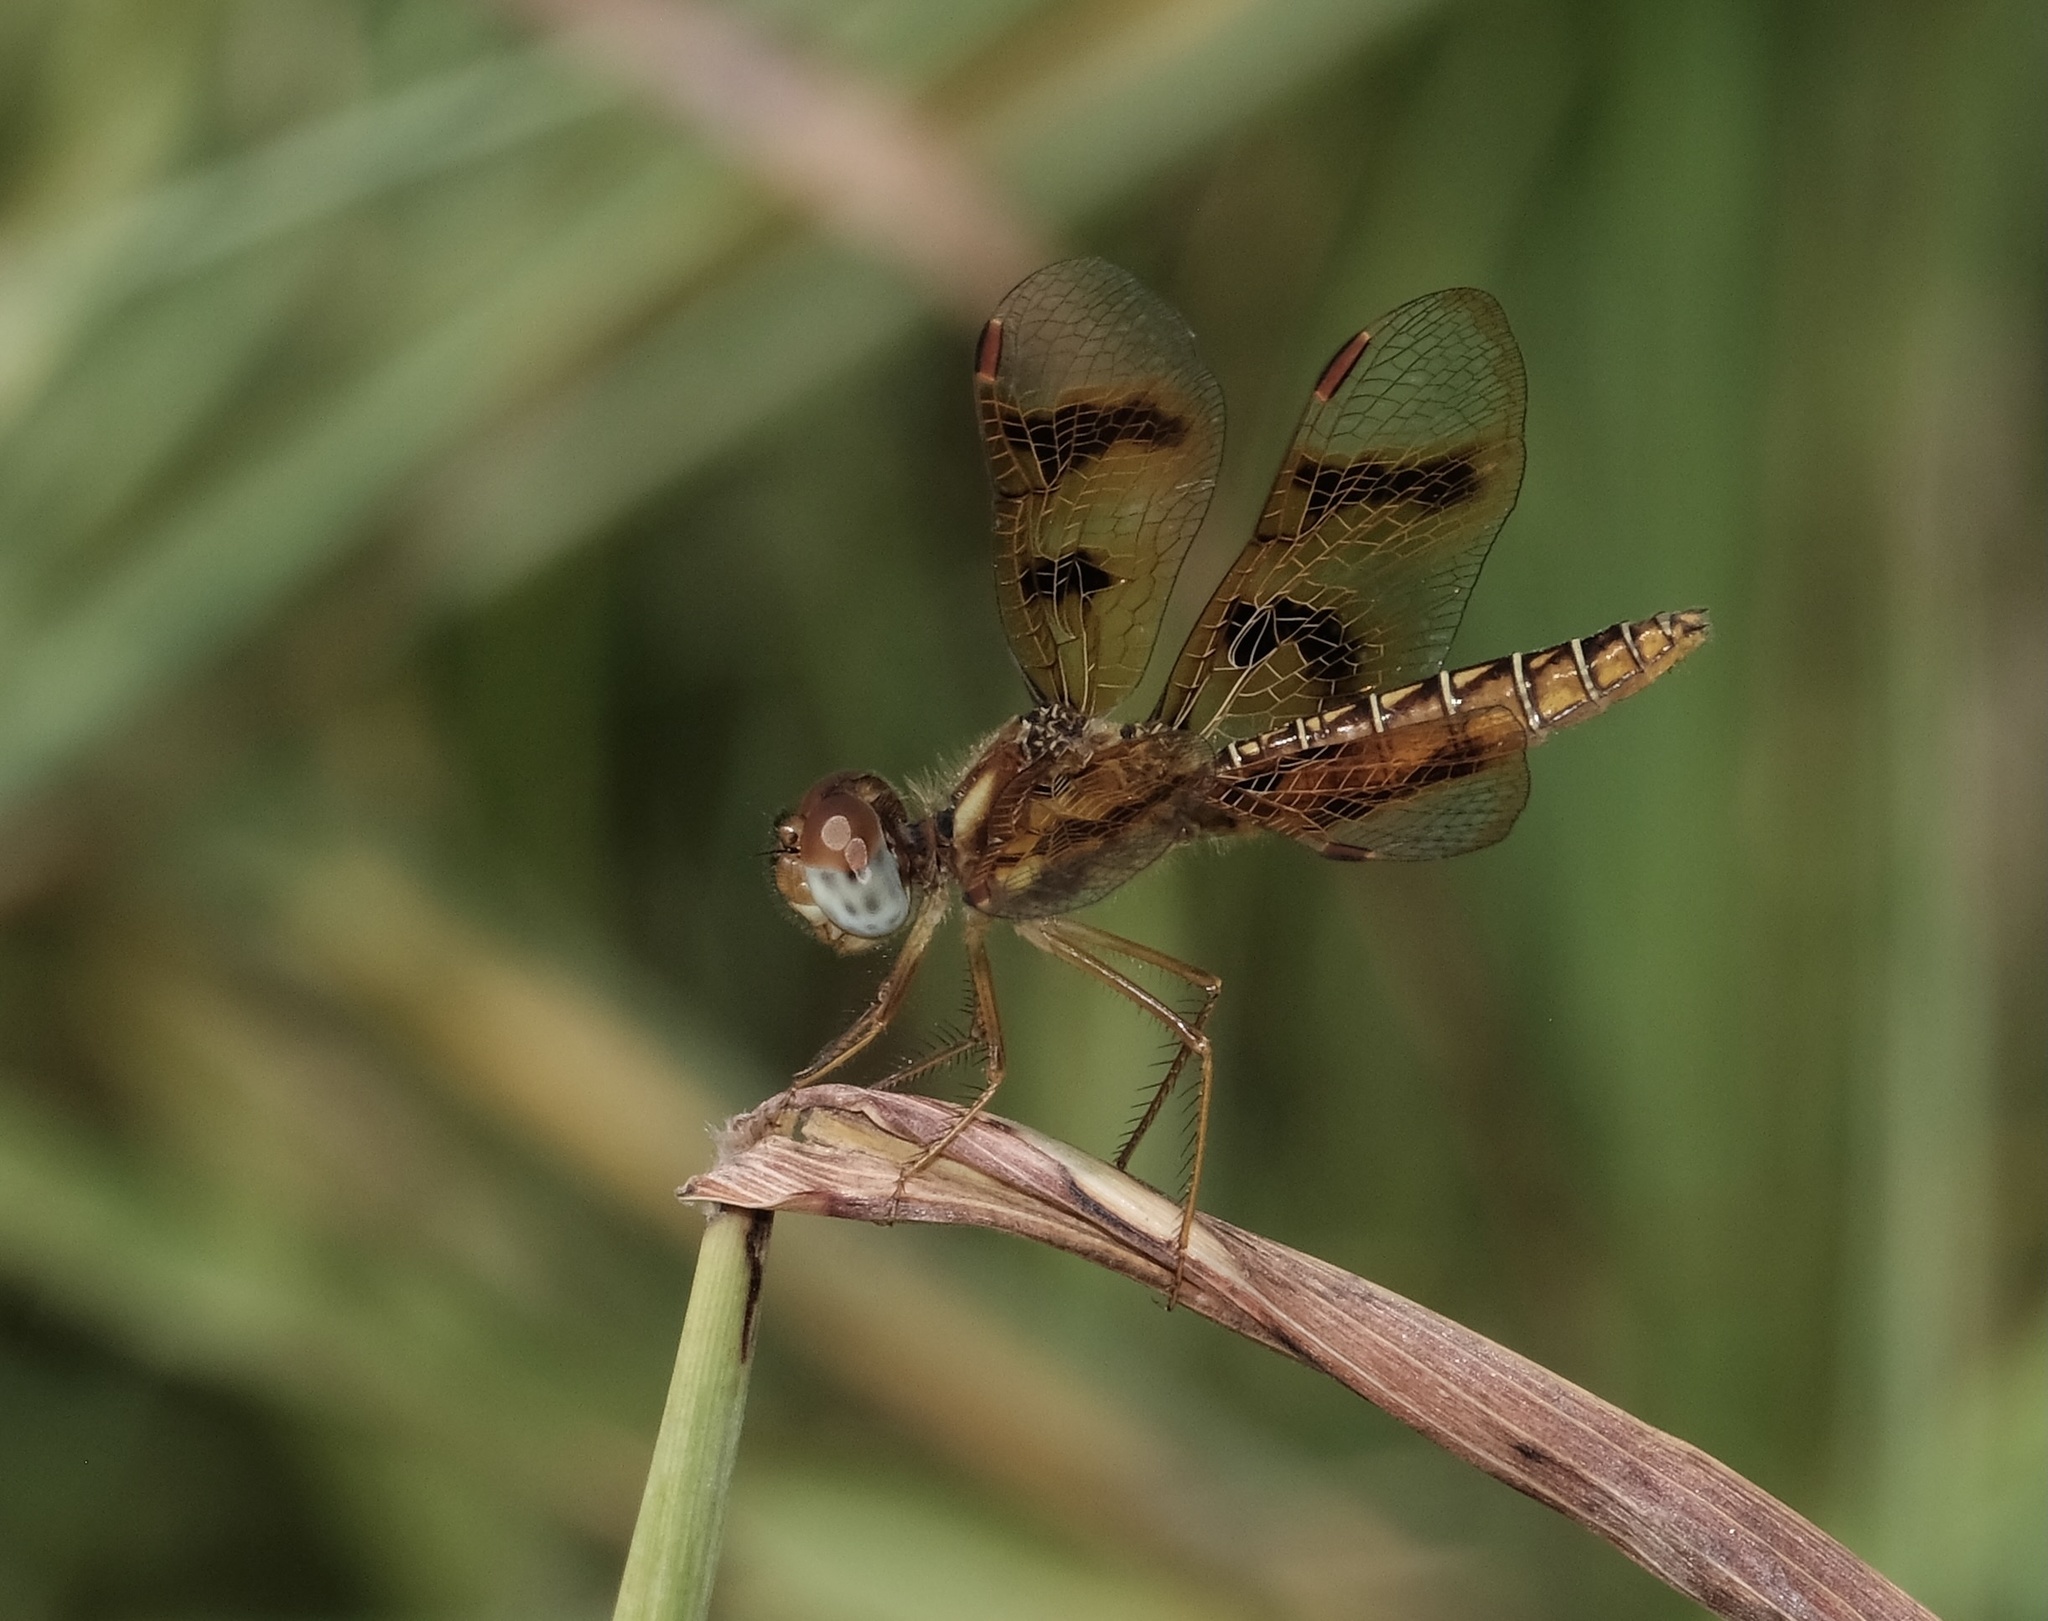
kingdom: Animalia
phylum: Arthropoda
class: Insecta
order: Odonata
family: Libellulidae
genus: Perithemis
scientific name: Perithemis tenera
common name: Eastern amberwing
